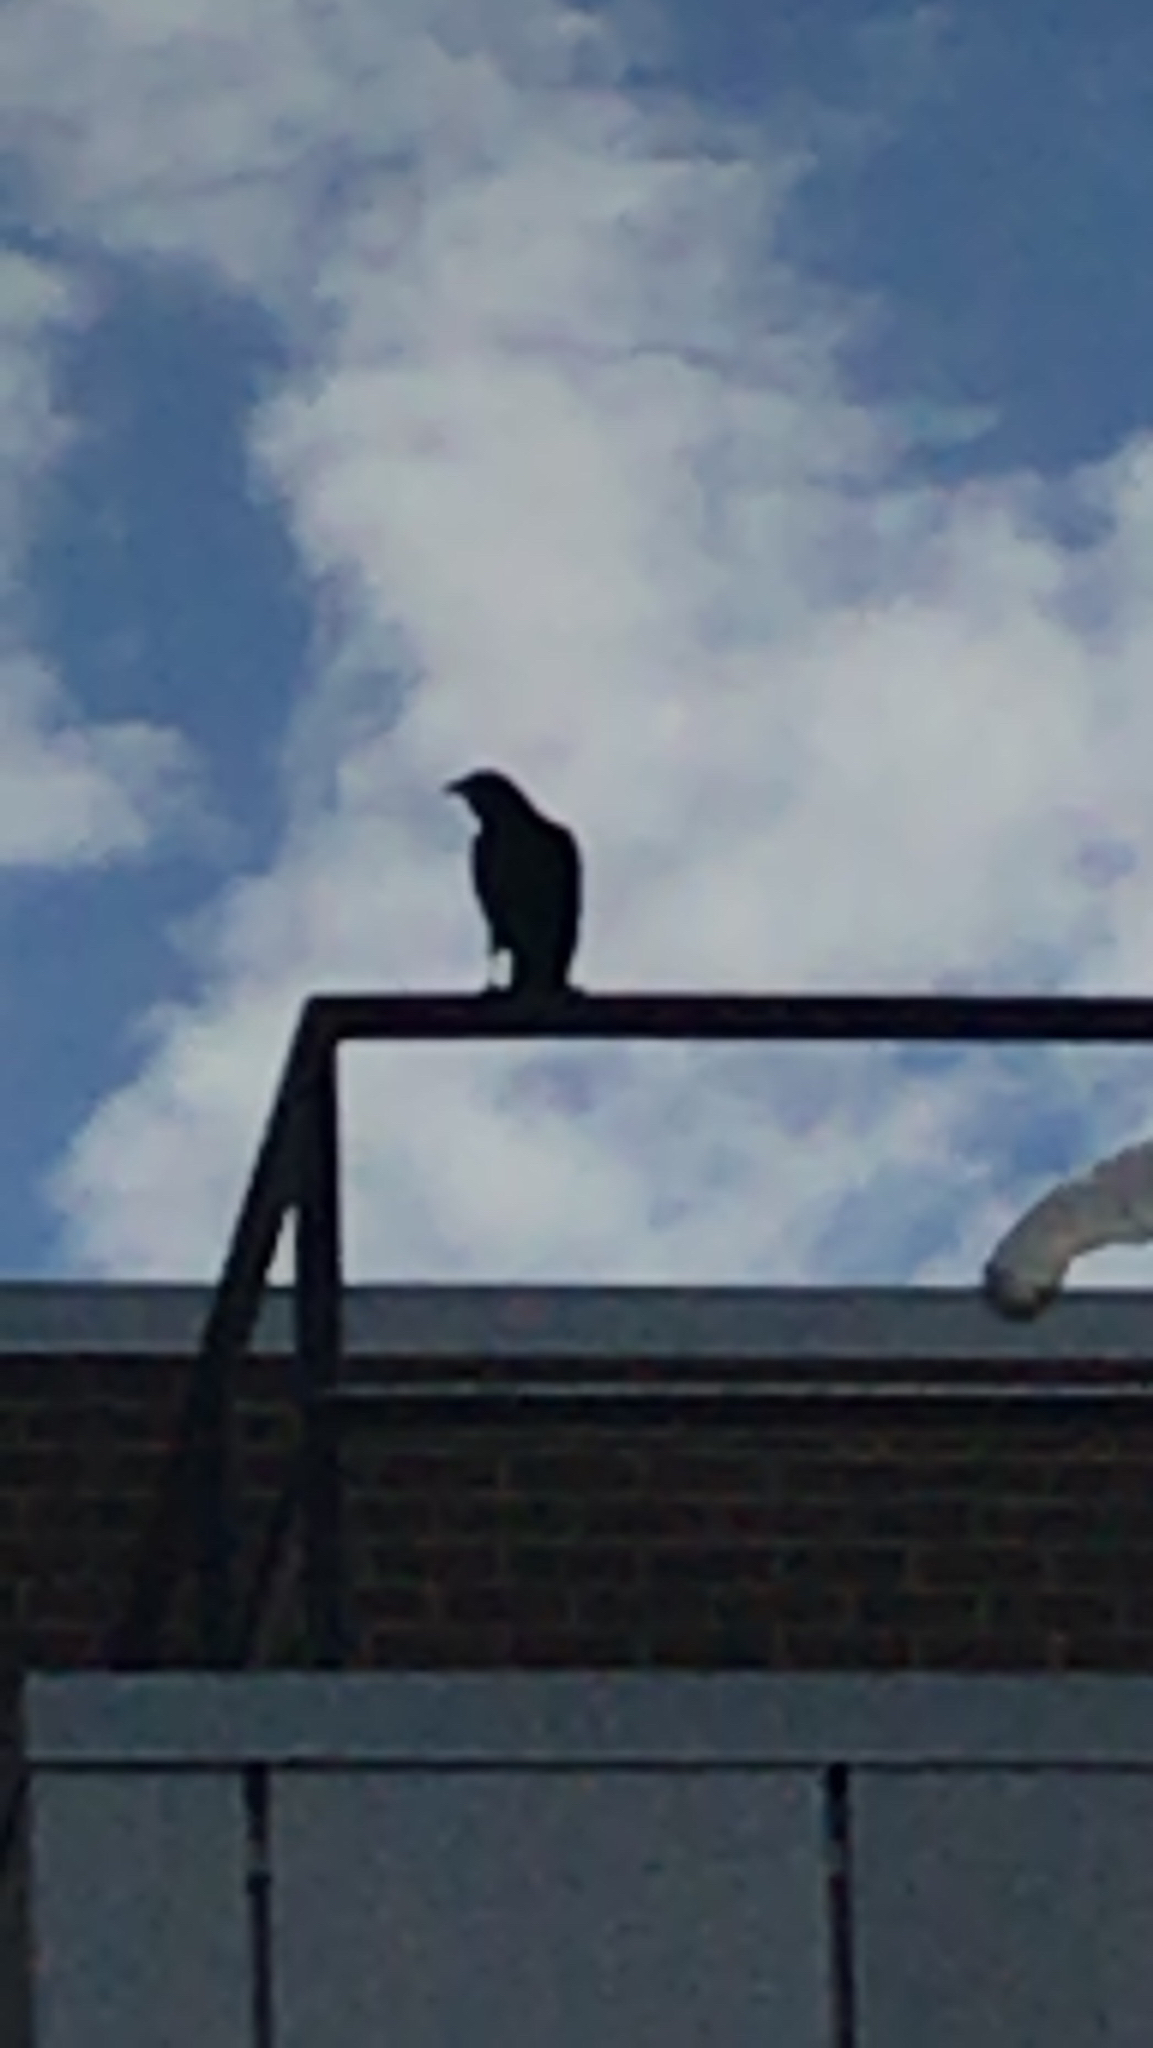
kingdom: Animalia
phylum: Chordata
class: Aves
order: Passeriformes
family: Corvidae
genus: Corvus
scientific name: Corvus brachyrhynchos
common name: American crow
